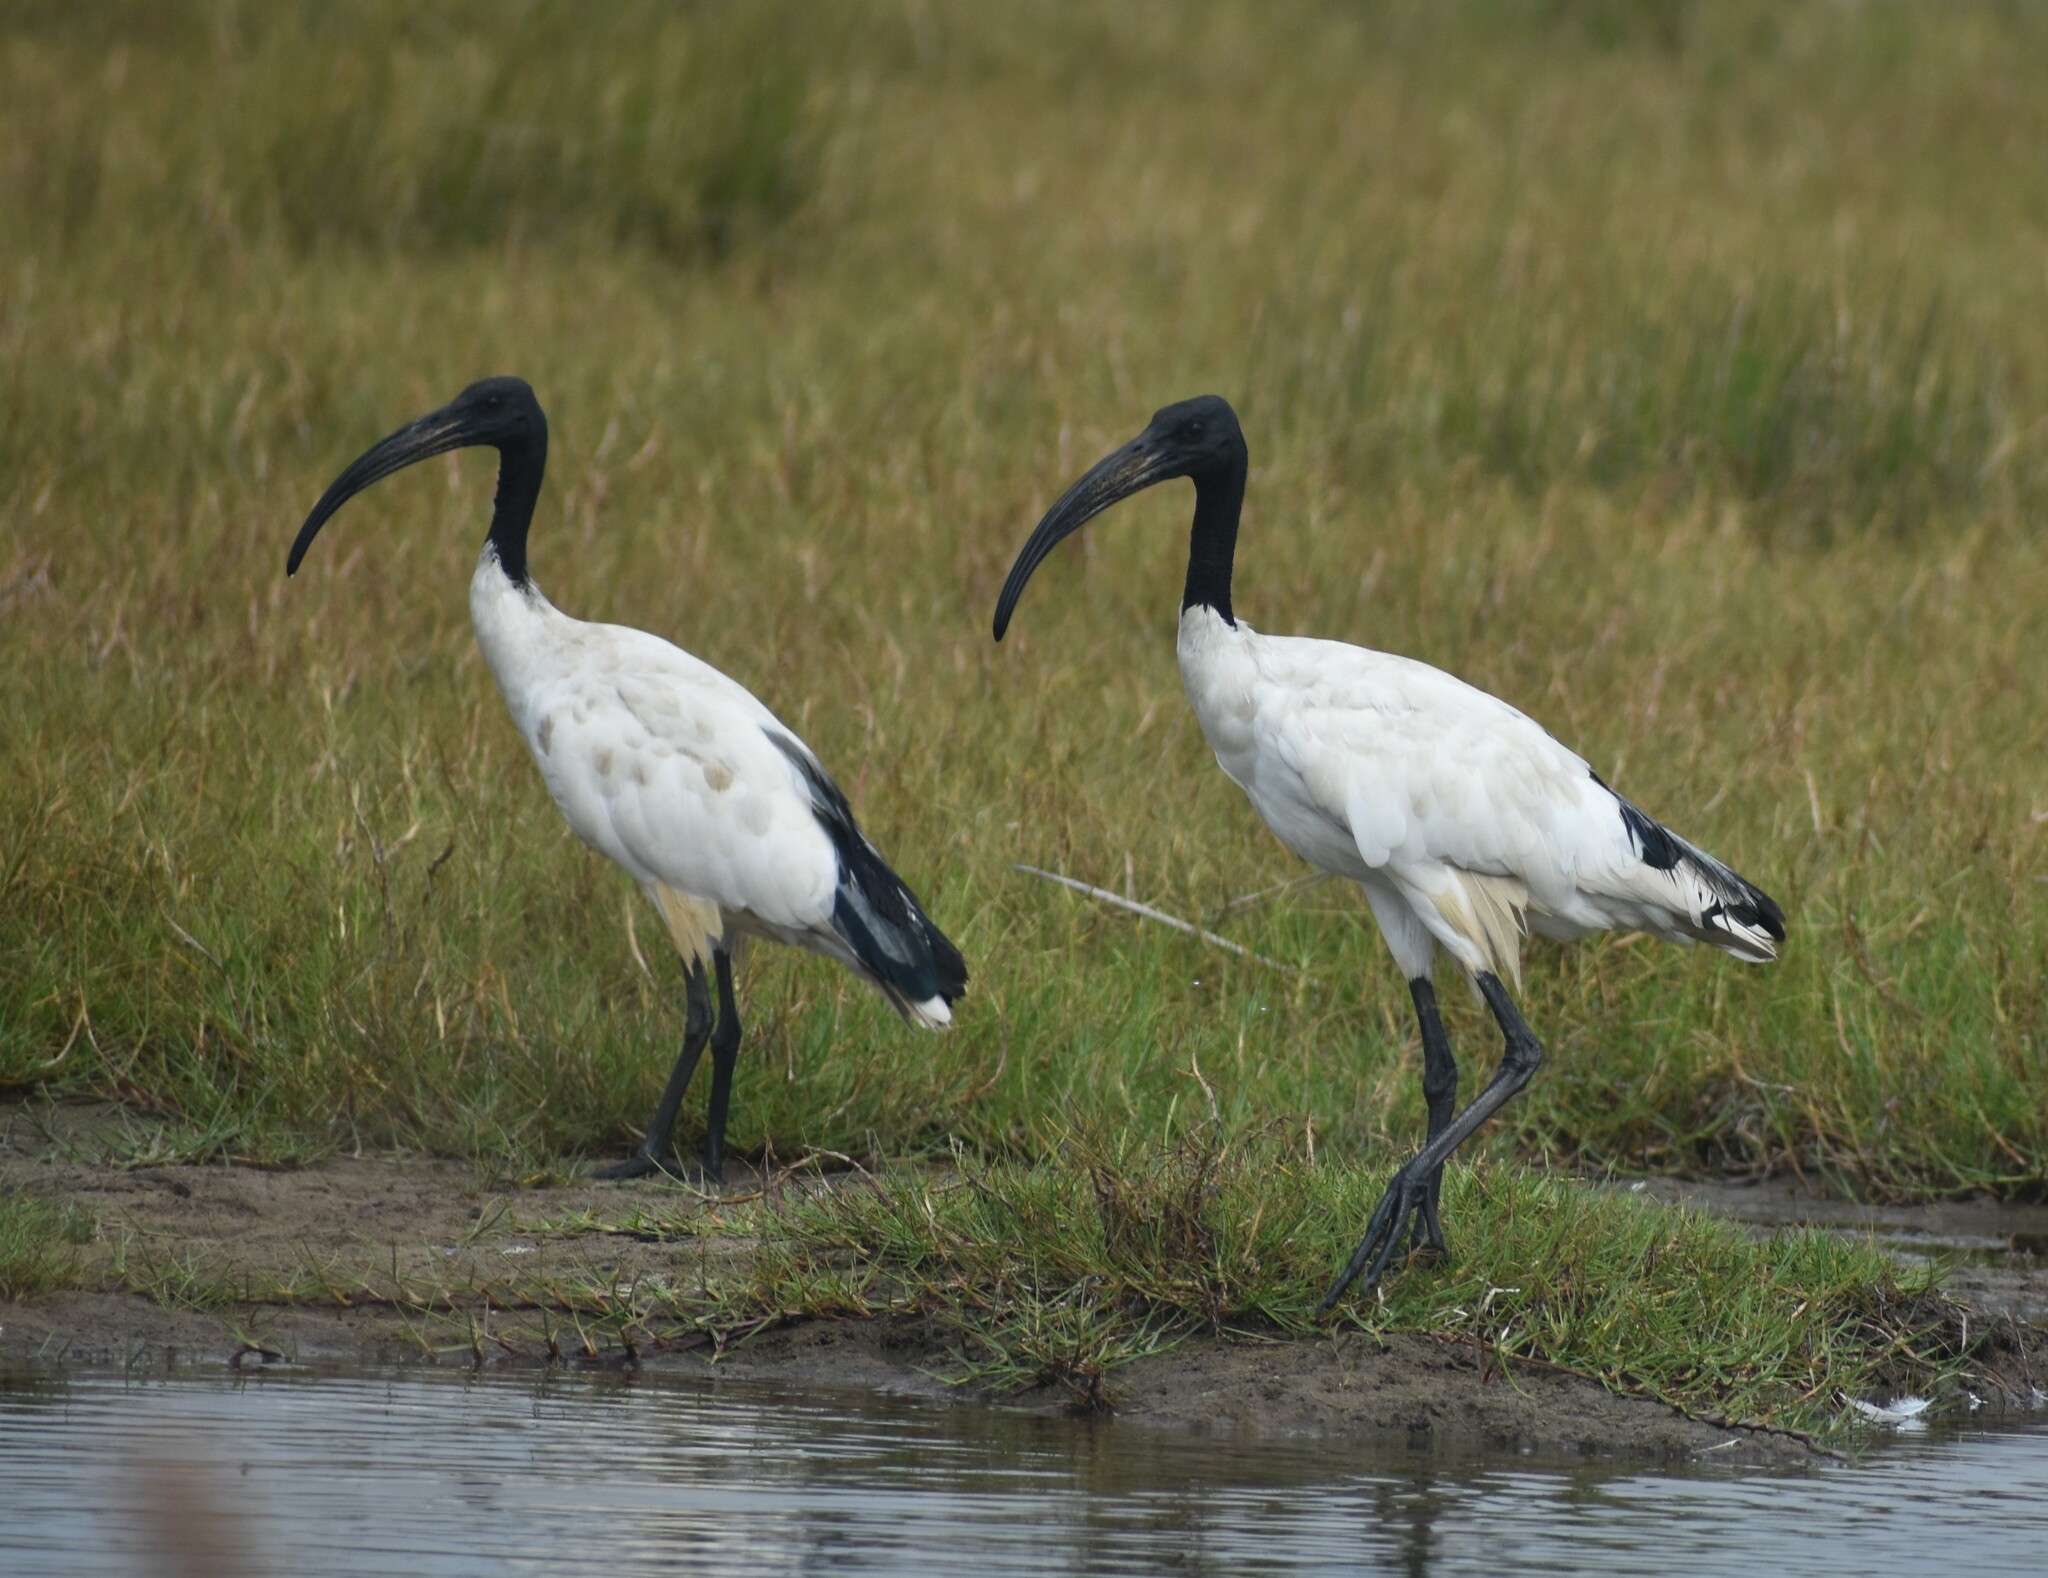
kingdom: Animalia
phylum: Chordata
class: Aves
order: Pelecaniformes
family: Threskiornithidae
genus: Threskiornis
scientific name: Threskiornis aethiopicus
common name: Sacred ibis
